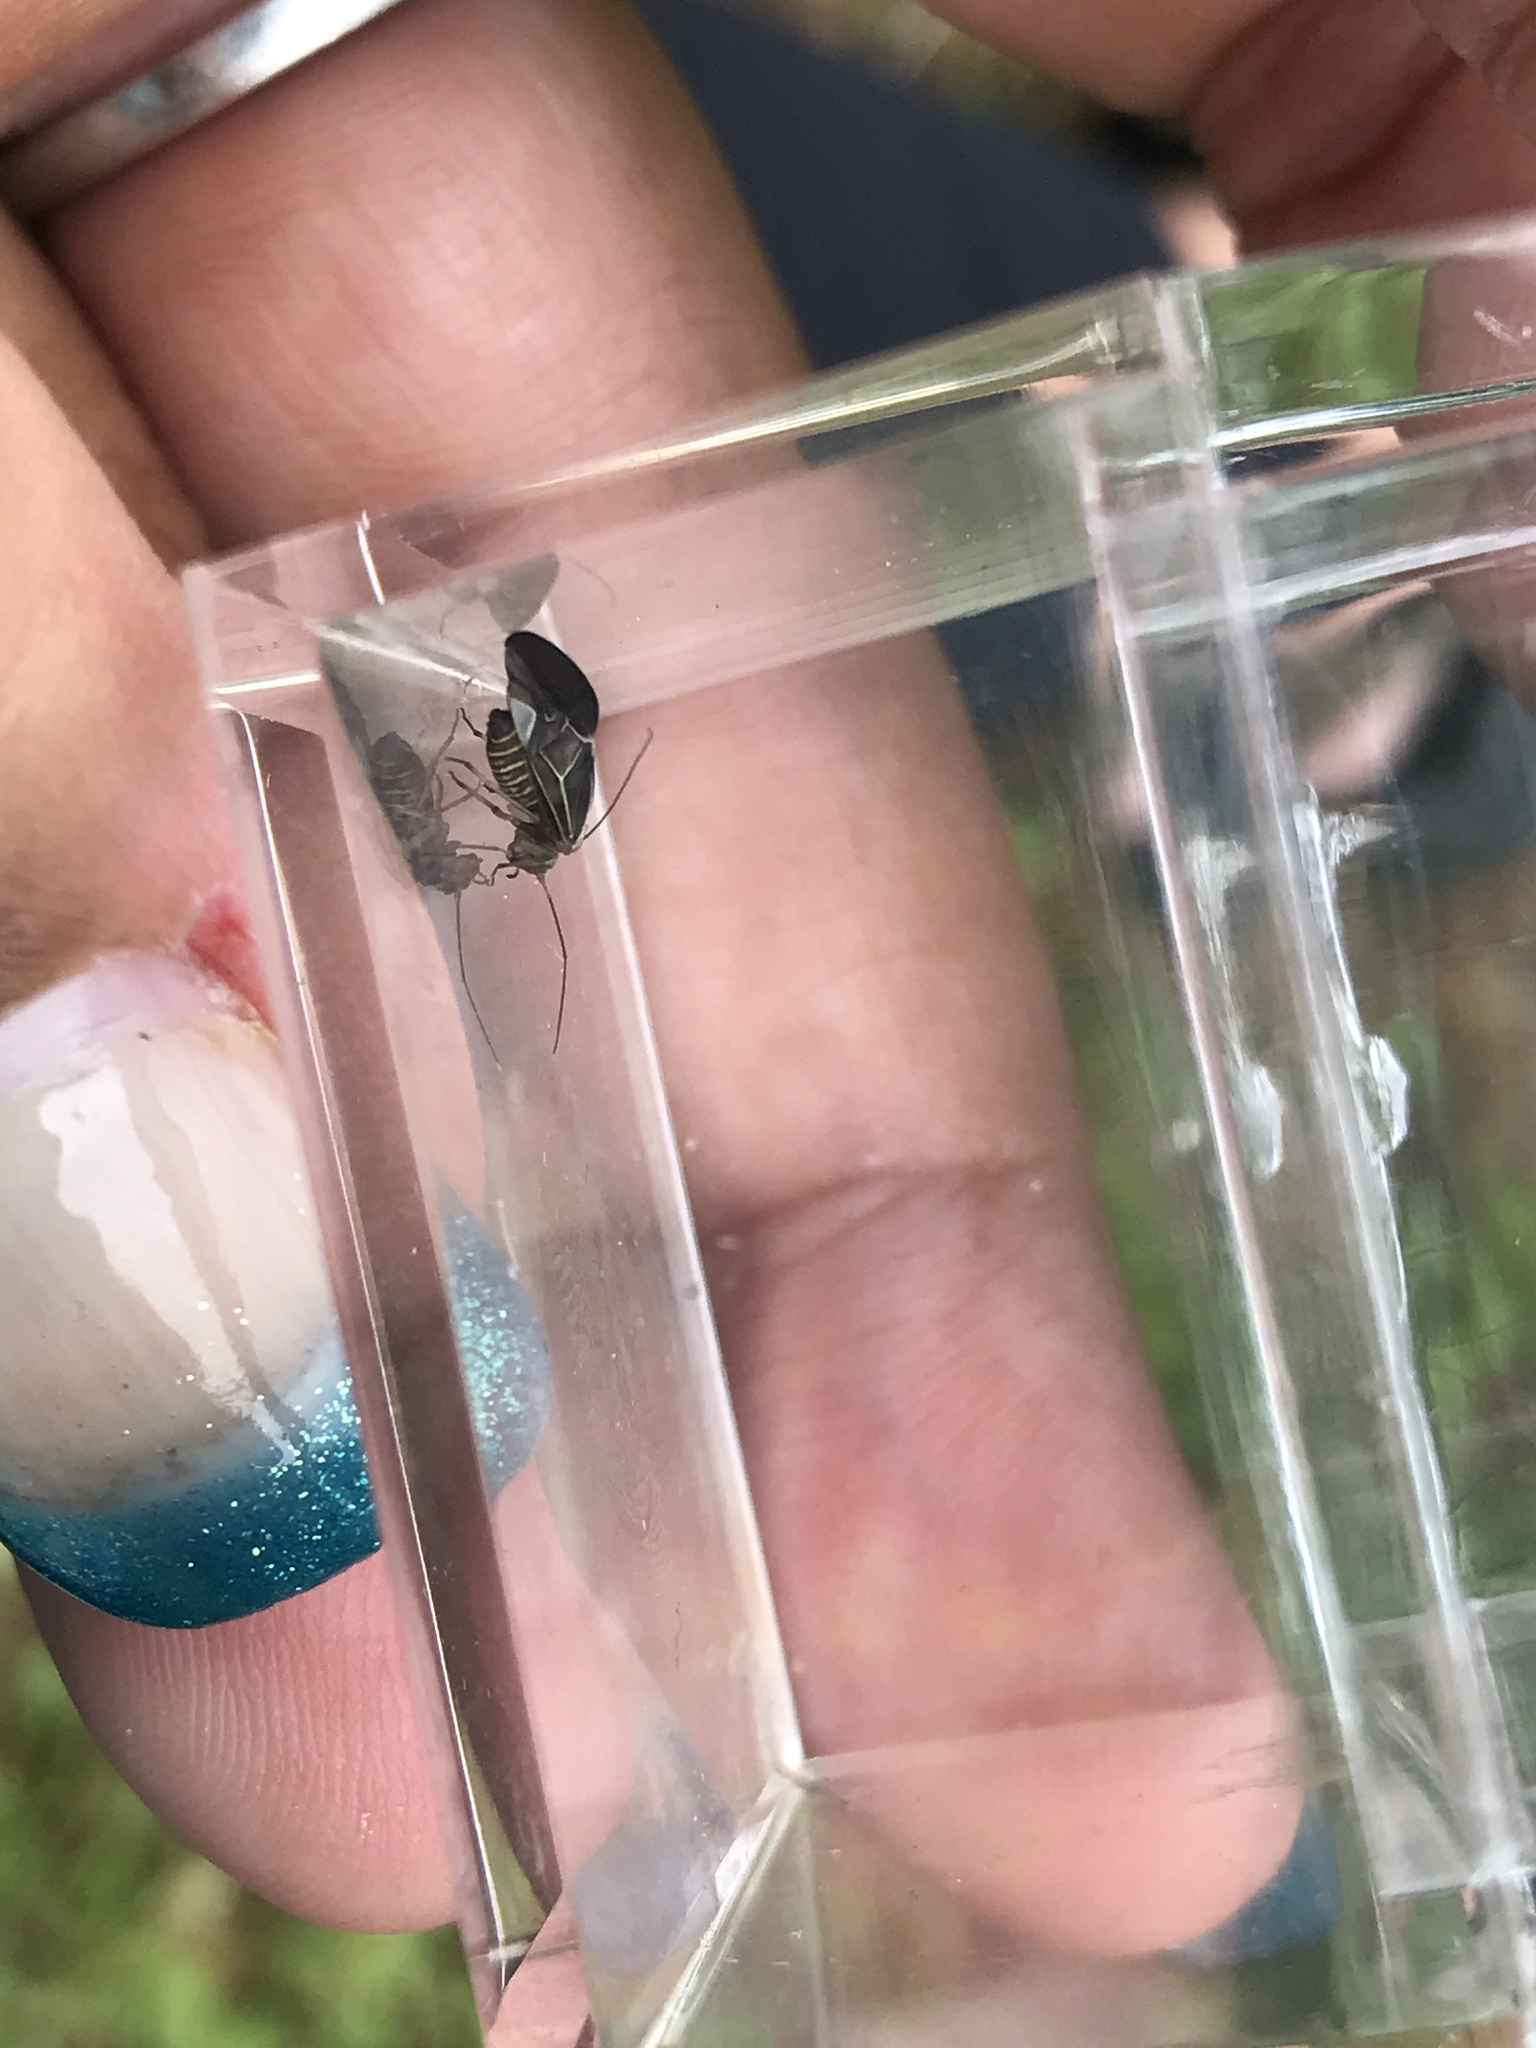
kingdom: Animalia
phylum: Arthropoda
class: Insecta
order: Psocodea
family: Psocidae
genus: Cerastipsocus
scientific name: Cerastipsocus venosus
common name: Tree cattle
